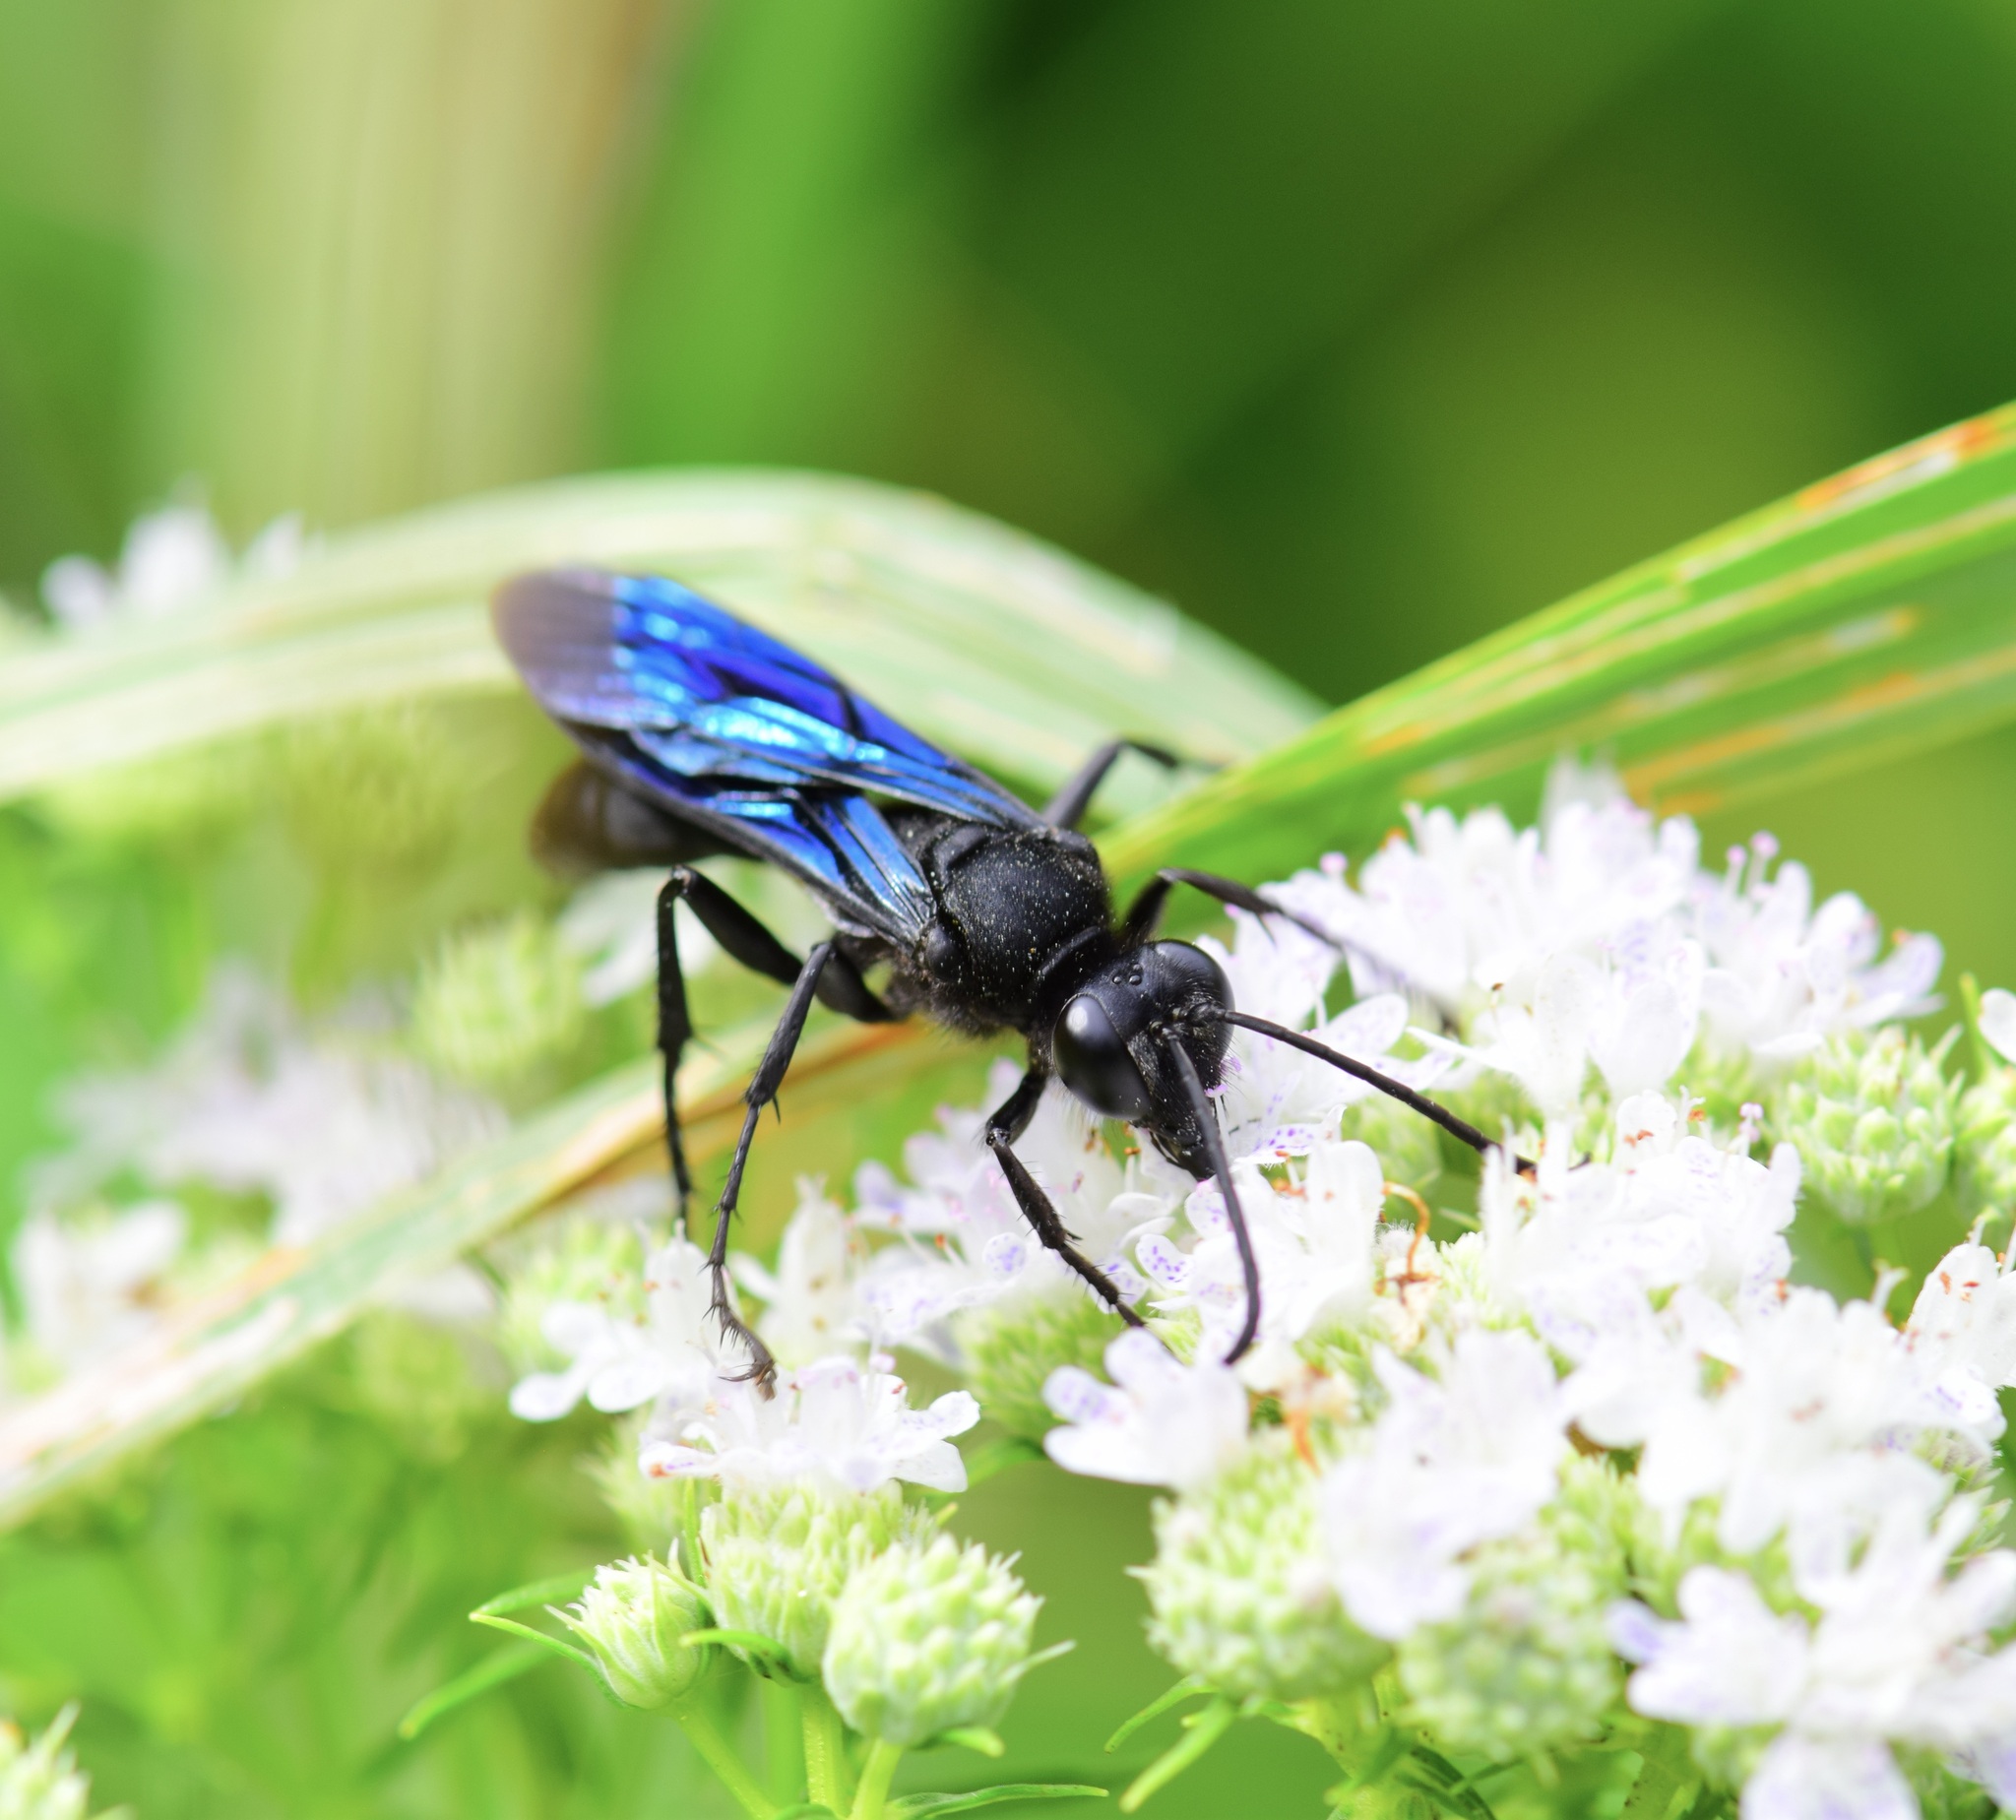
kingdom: Animalia
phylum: Arthropoda
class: Insecta
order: Hymenoptera
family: Sphecidae
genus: Sphex
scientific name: Sphex pensylvanicus
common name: Great black digger wasp
